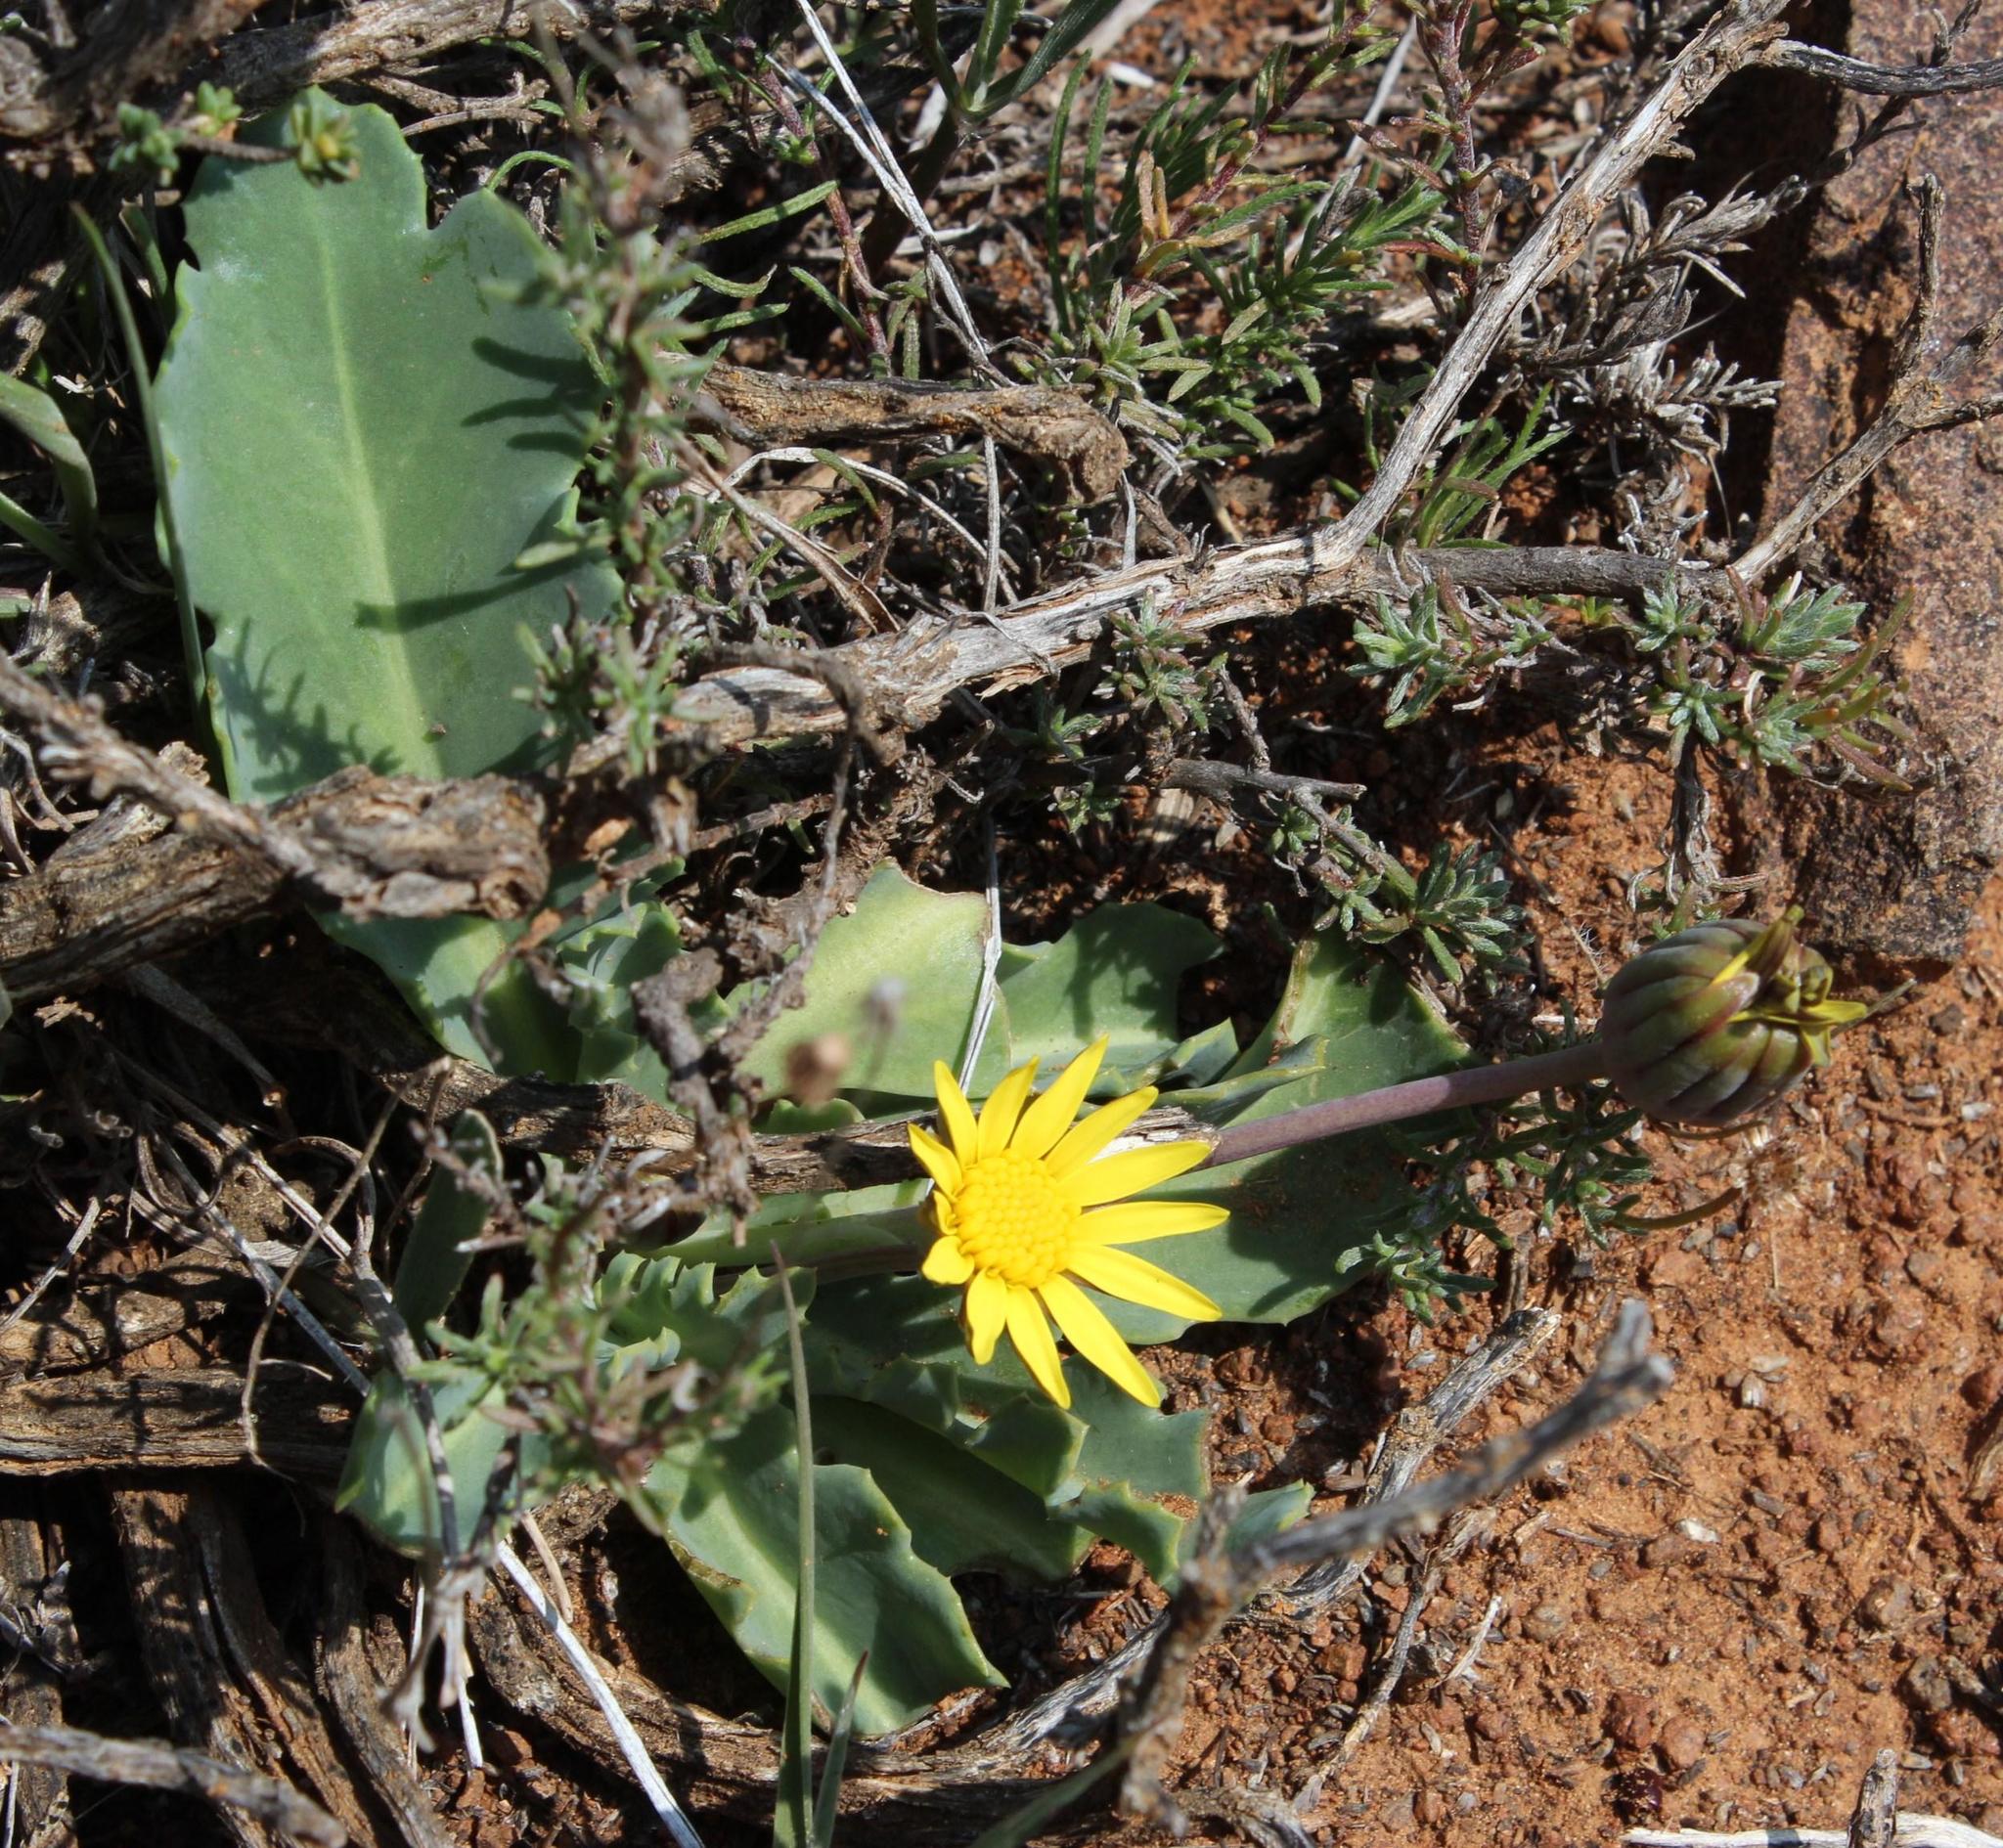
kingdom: Plantae
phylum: Tracheophyta
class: Magnoliopsida
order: Asterales
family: Asteraceae
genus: Othonna
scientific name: Othonna auriculifolia
